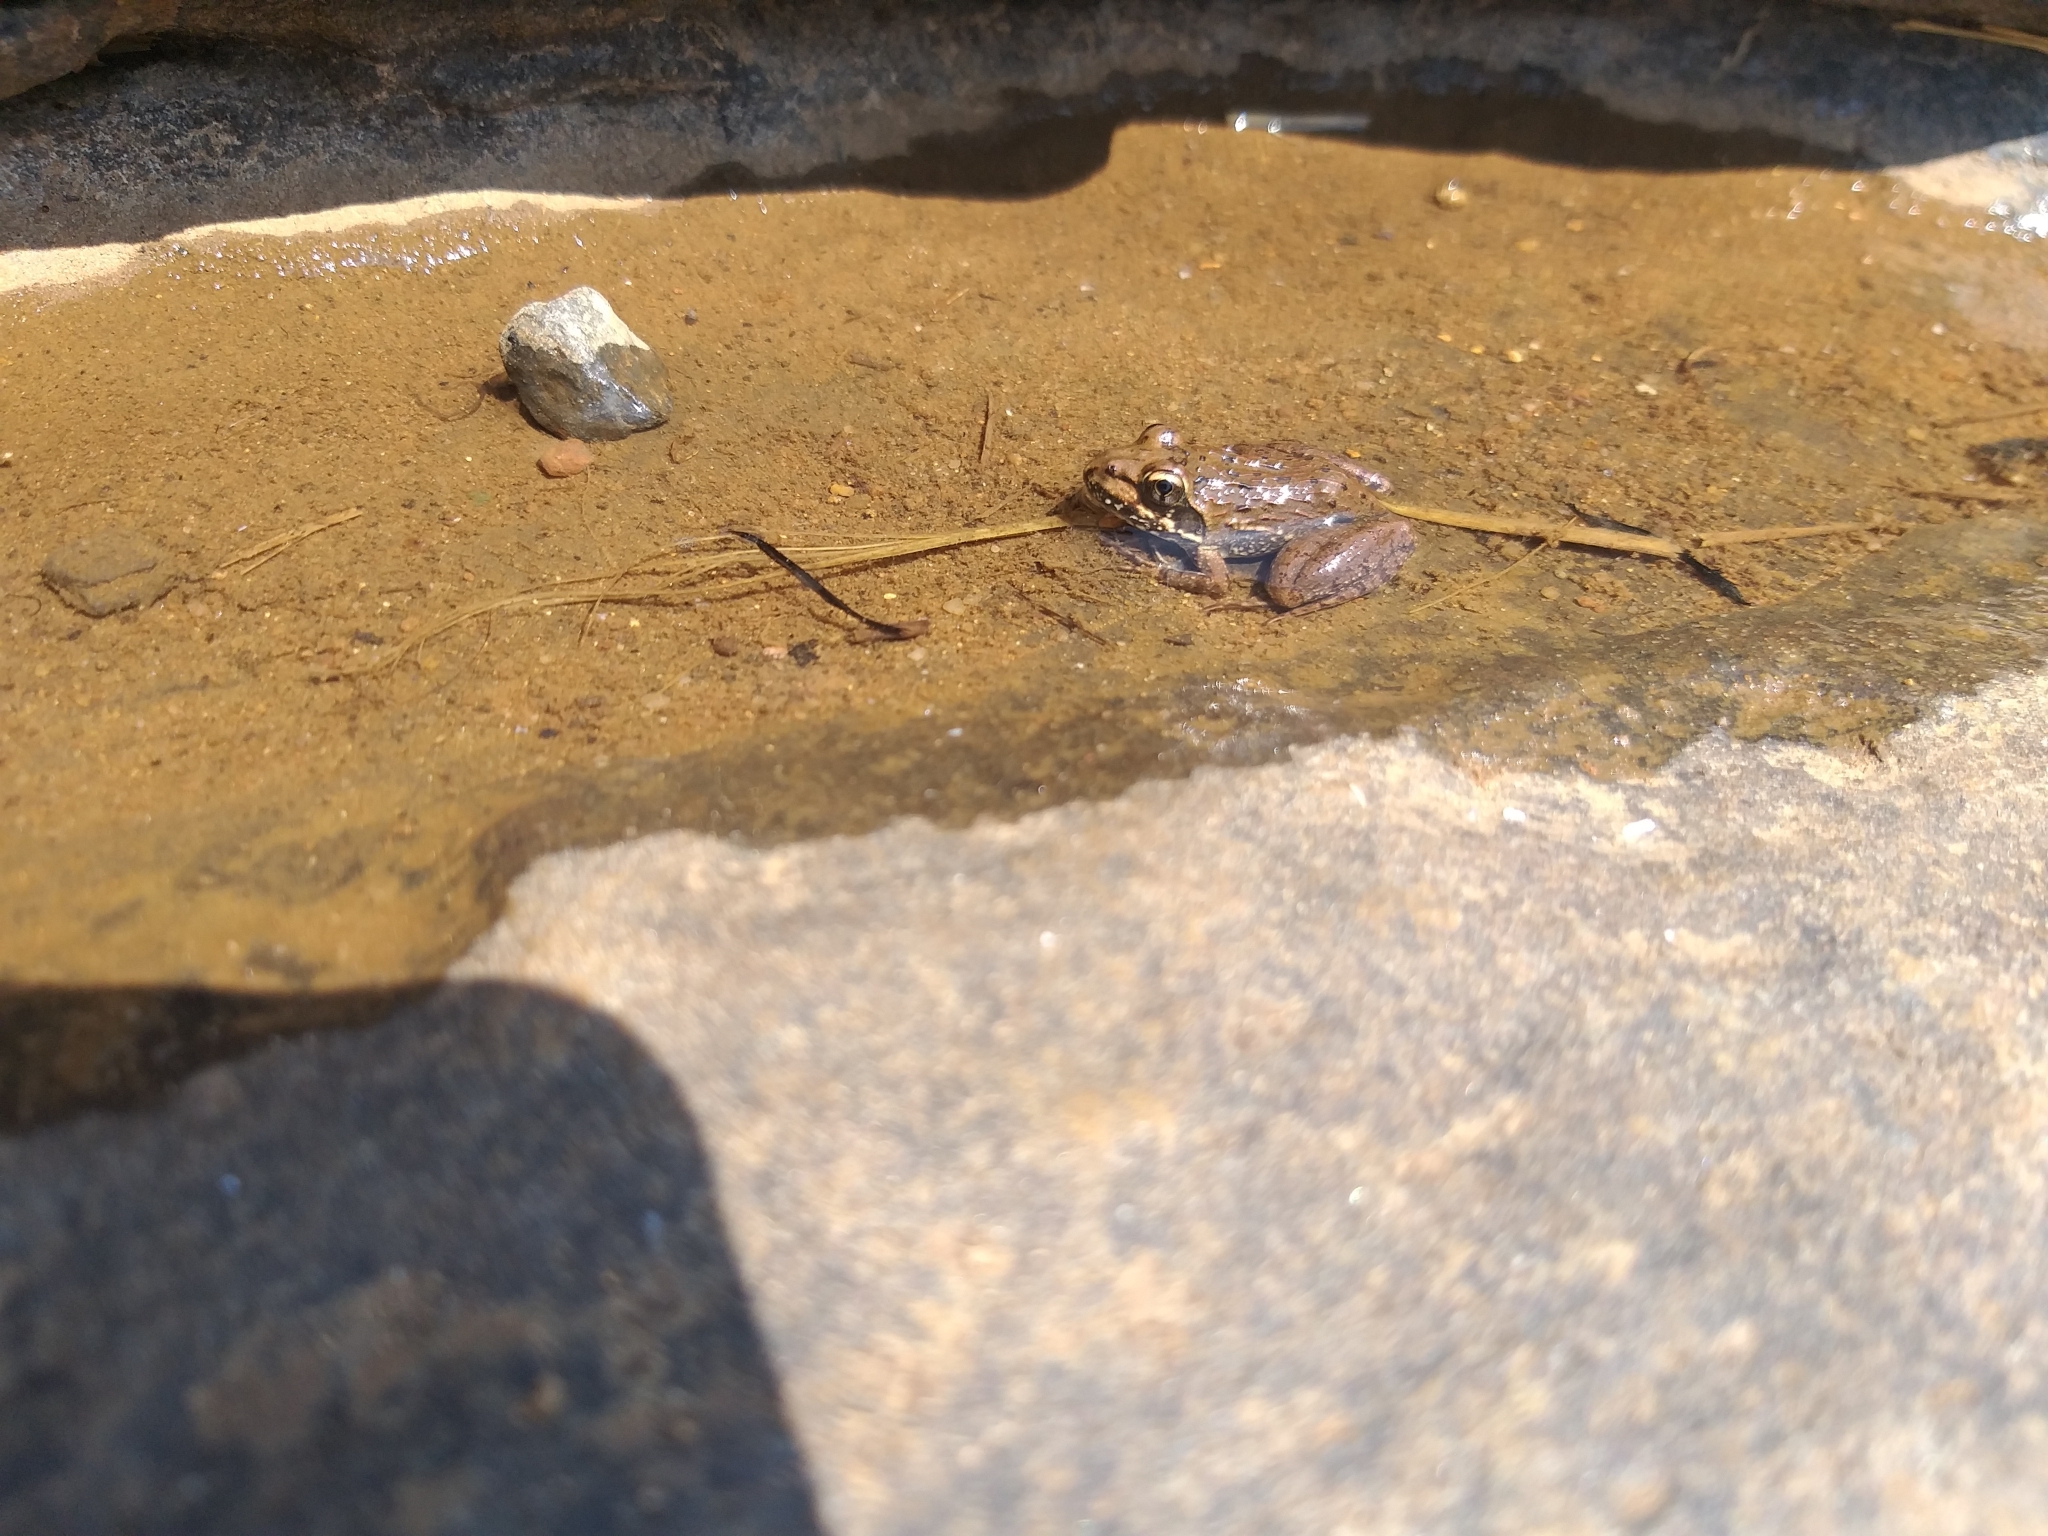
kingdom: Animalia
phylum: Chordata
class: Amphibia
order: Anura
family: Pyxicephalidae
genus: Amietia
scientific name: Amietia delalandii
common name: Delalande's river frog
